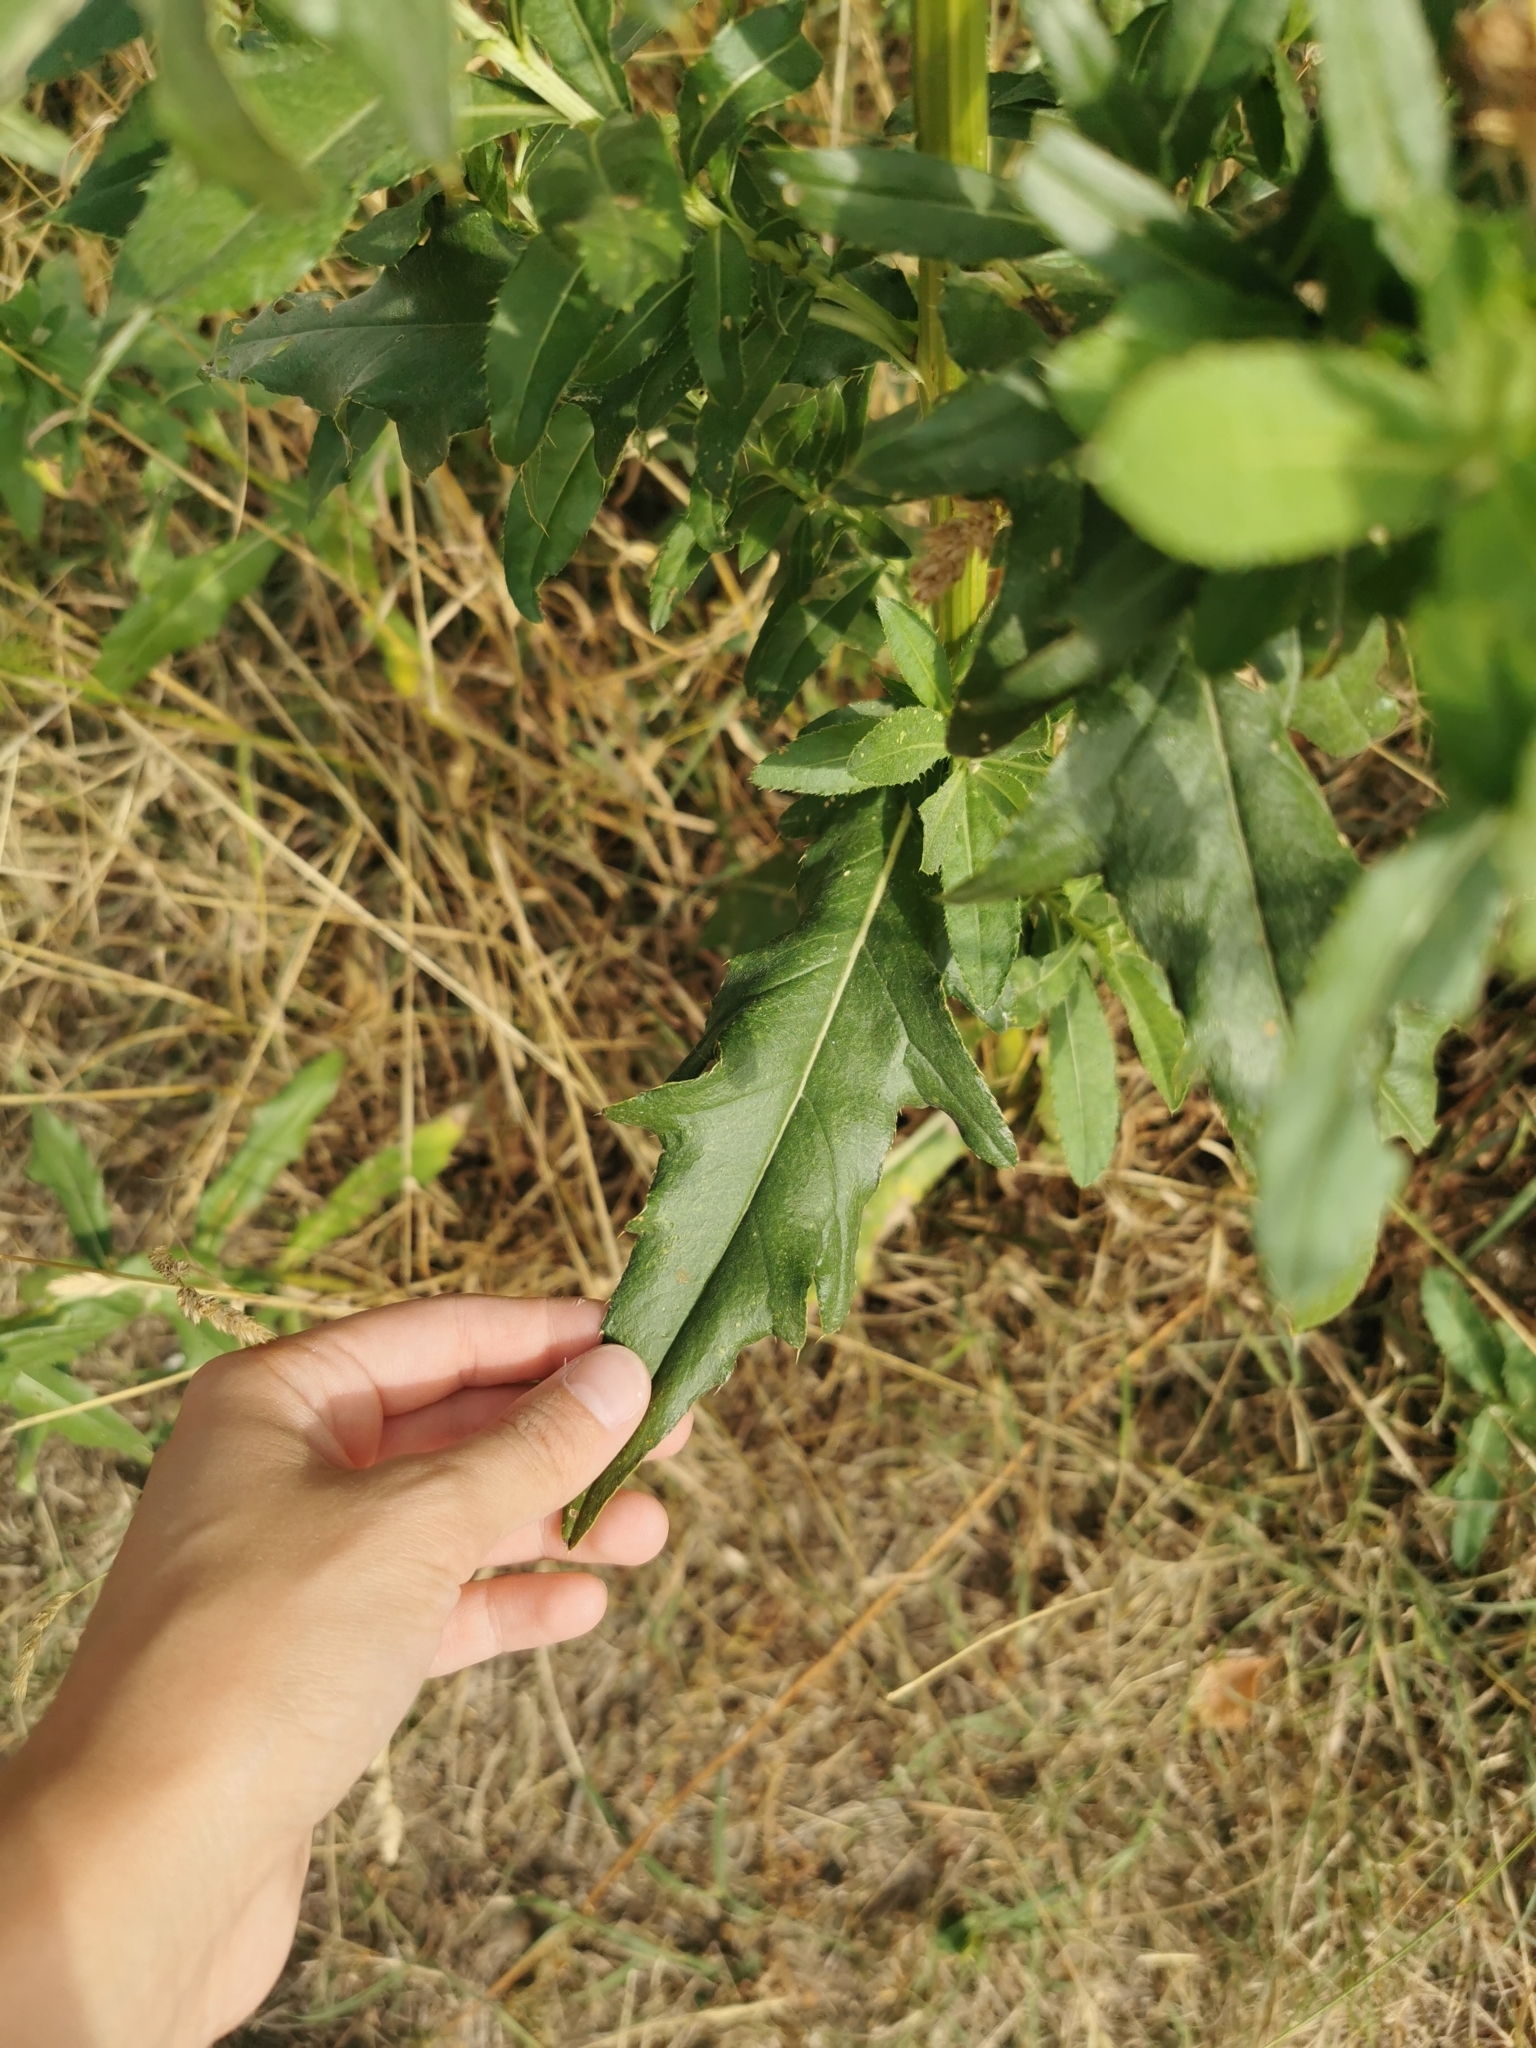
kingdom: Plantae
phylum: Tracheophyta
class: Magnoliopsida
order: Asterales
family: Asteraceae
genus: Cirsium
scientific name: Cirsium arvense
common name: Creeping thistle
